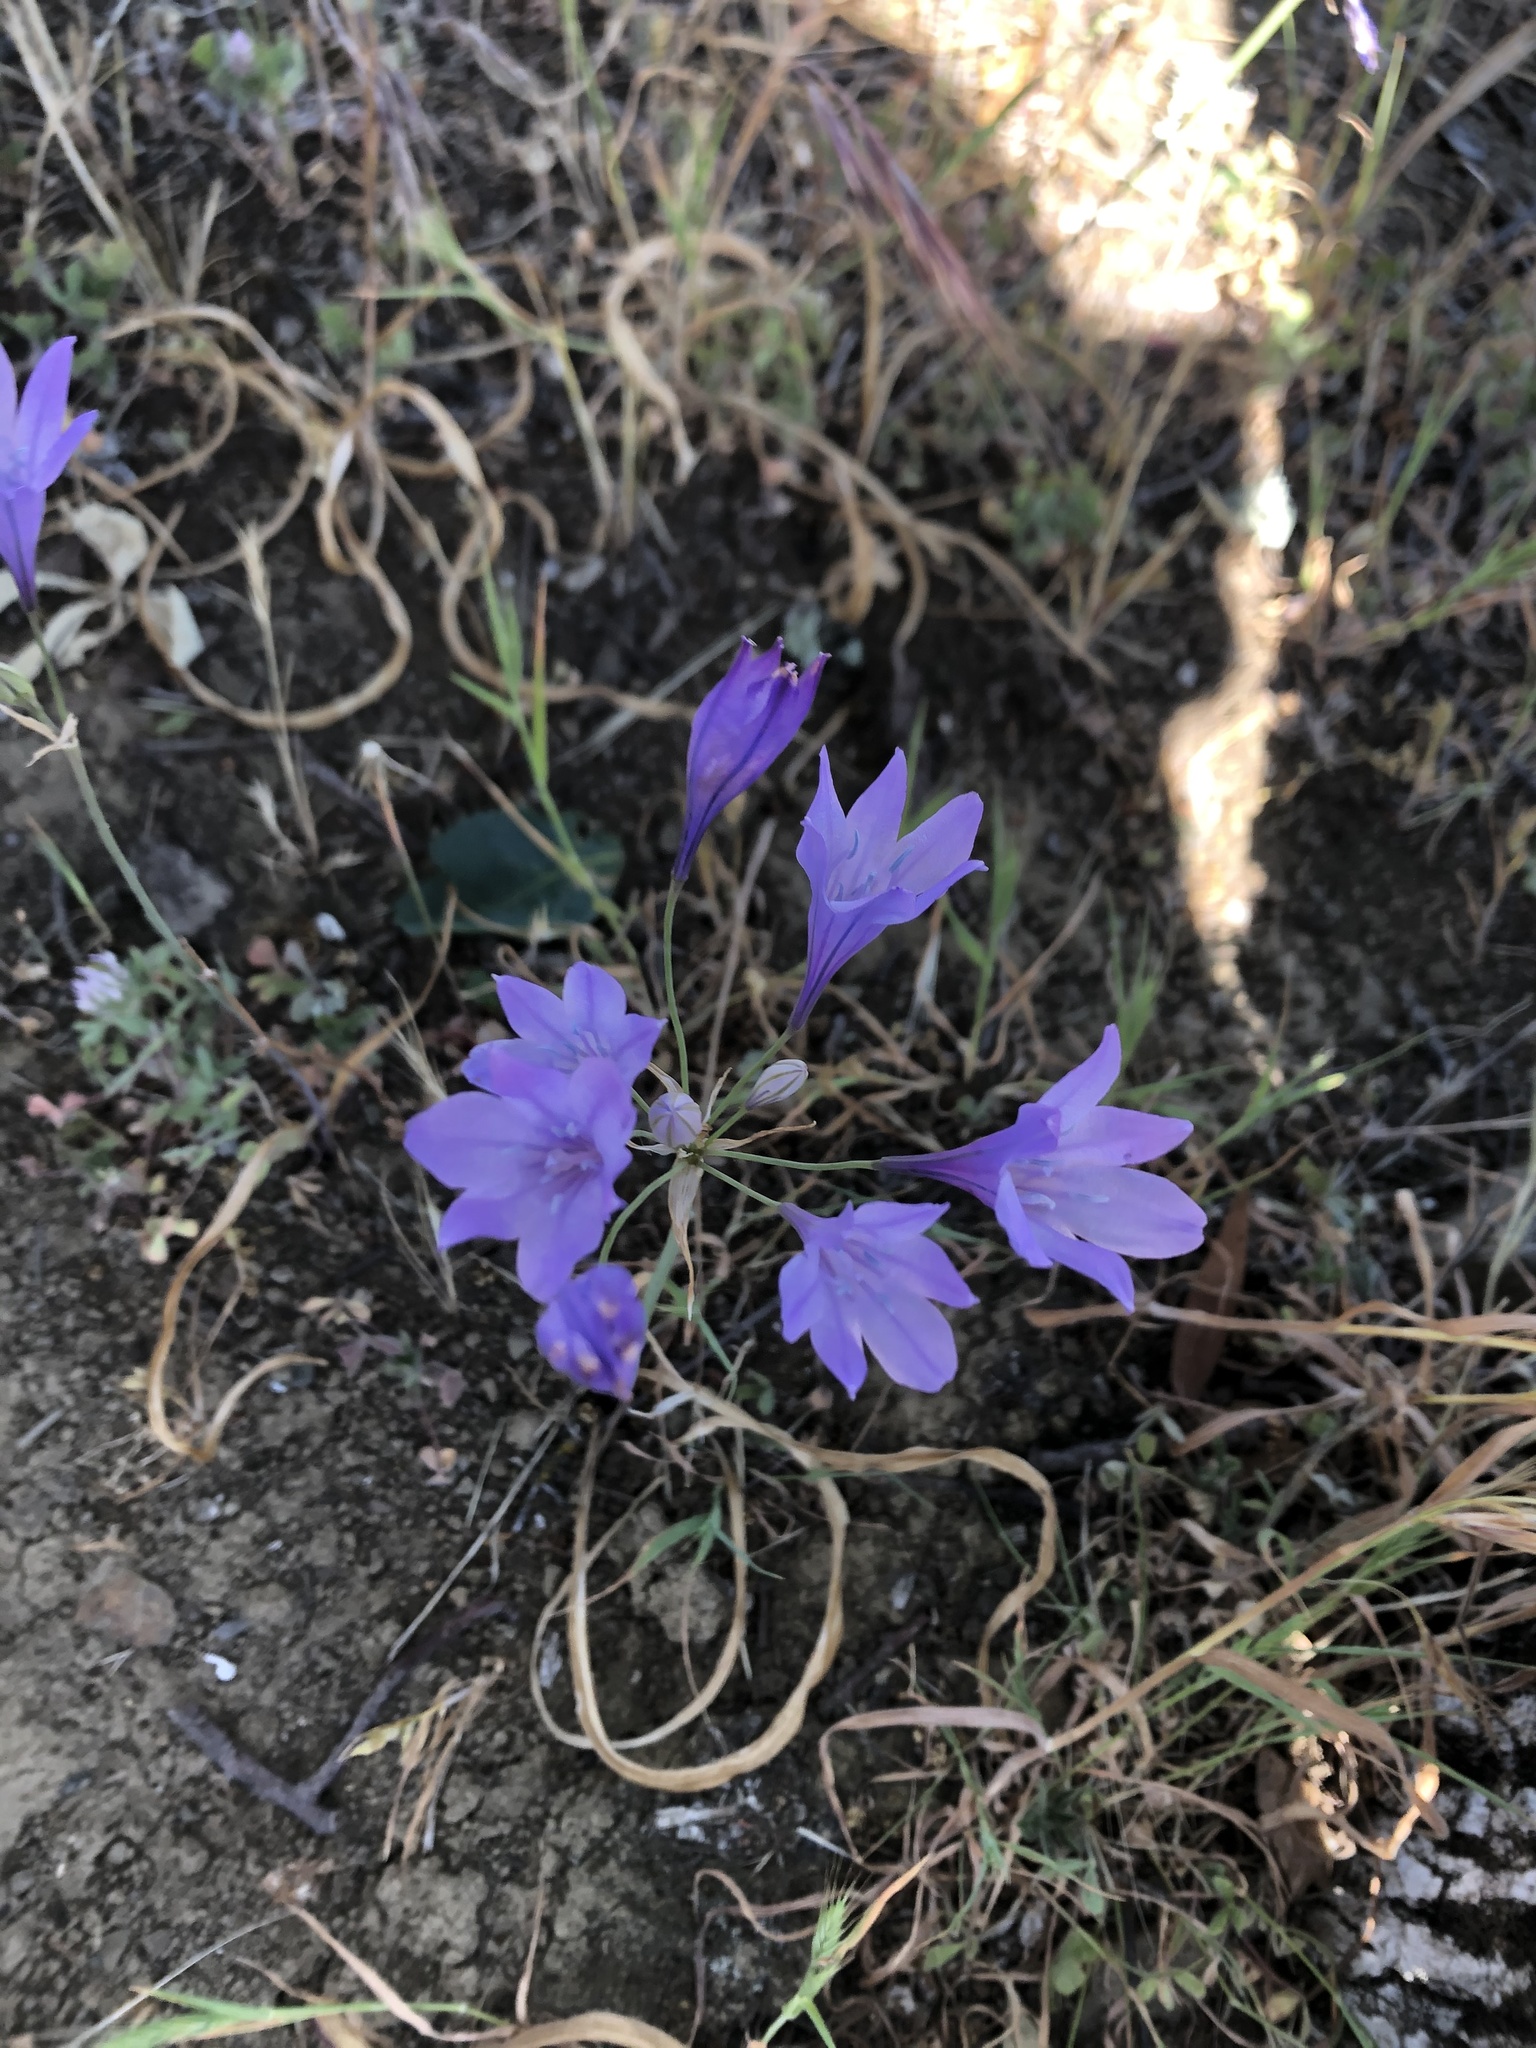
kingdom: Plantae
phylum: Tracheophyta
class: Liliopsida
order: Asparagales
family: Asparagaceae
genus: Triteleia
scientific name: Triteleia laxa
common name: Triplet-lily
